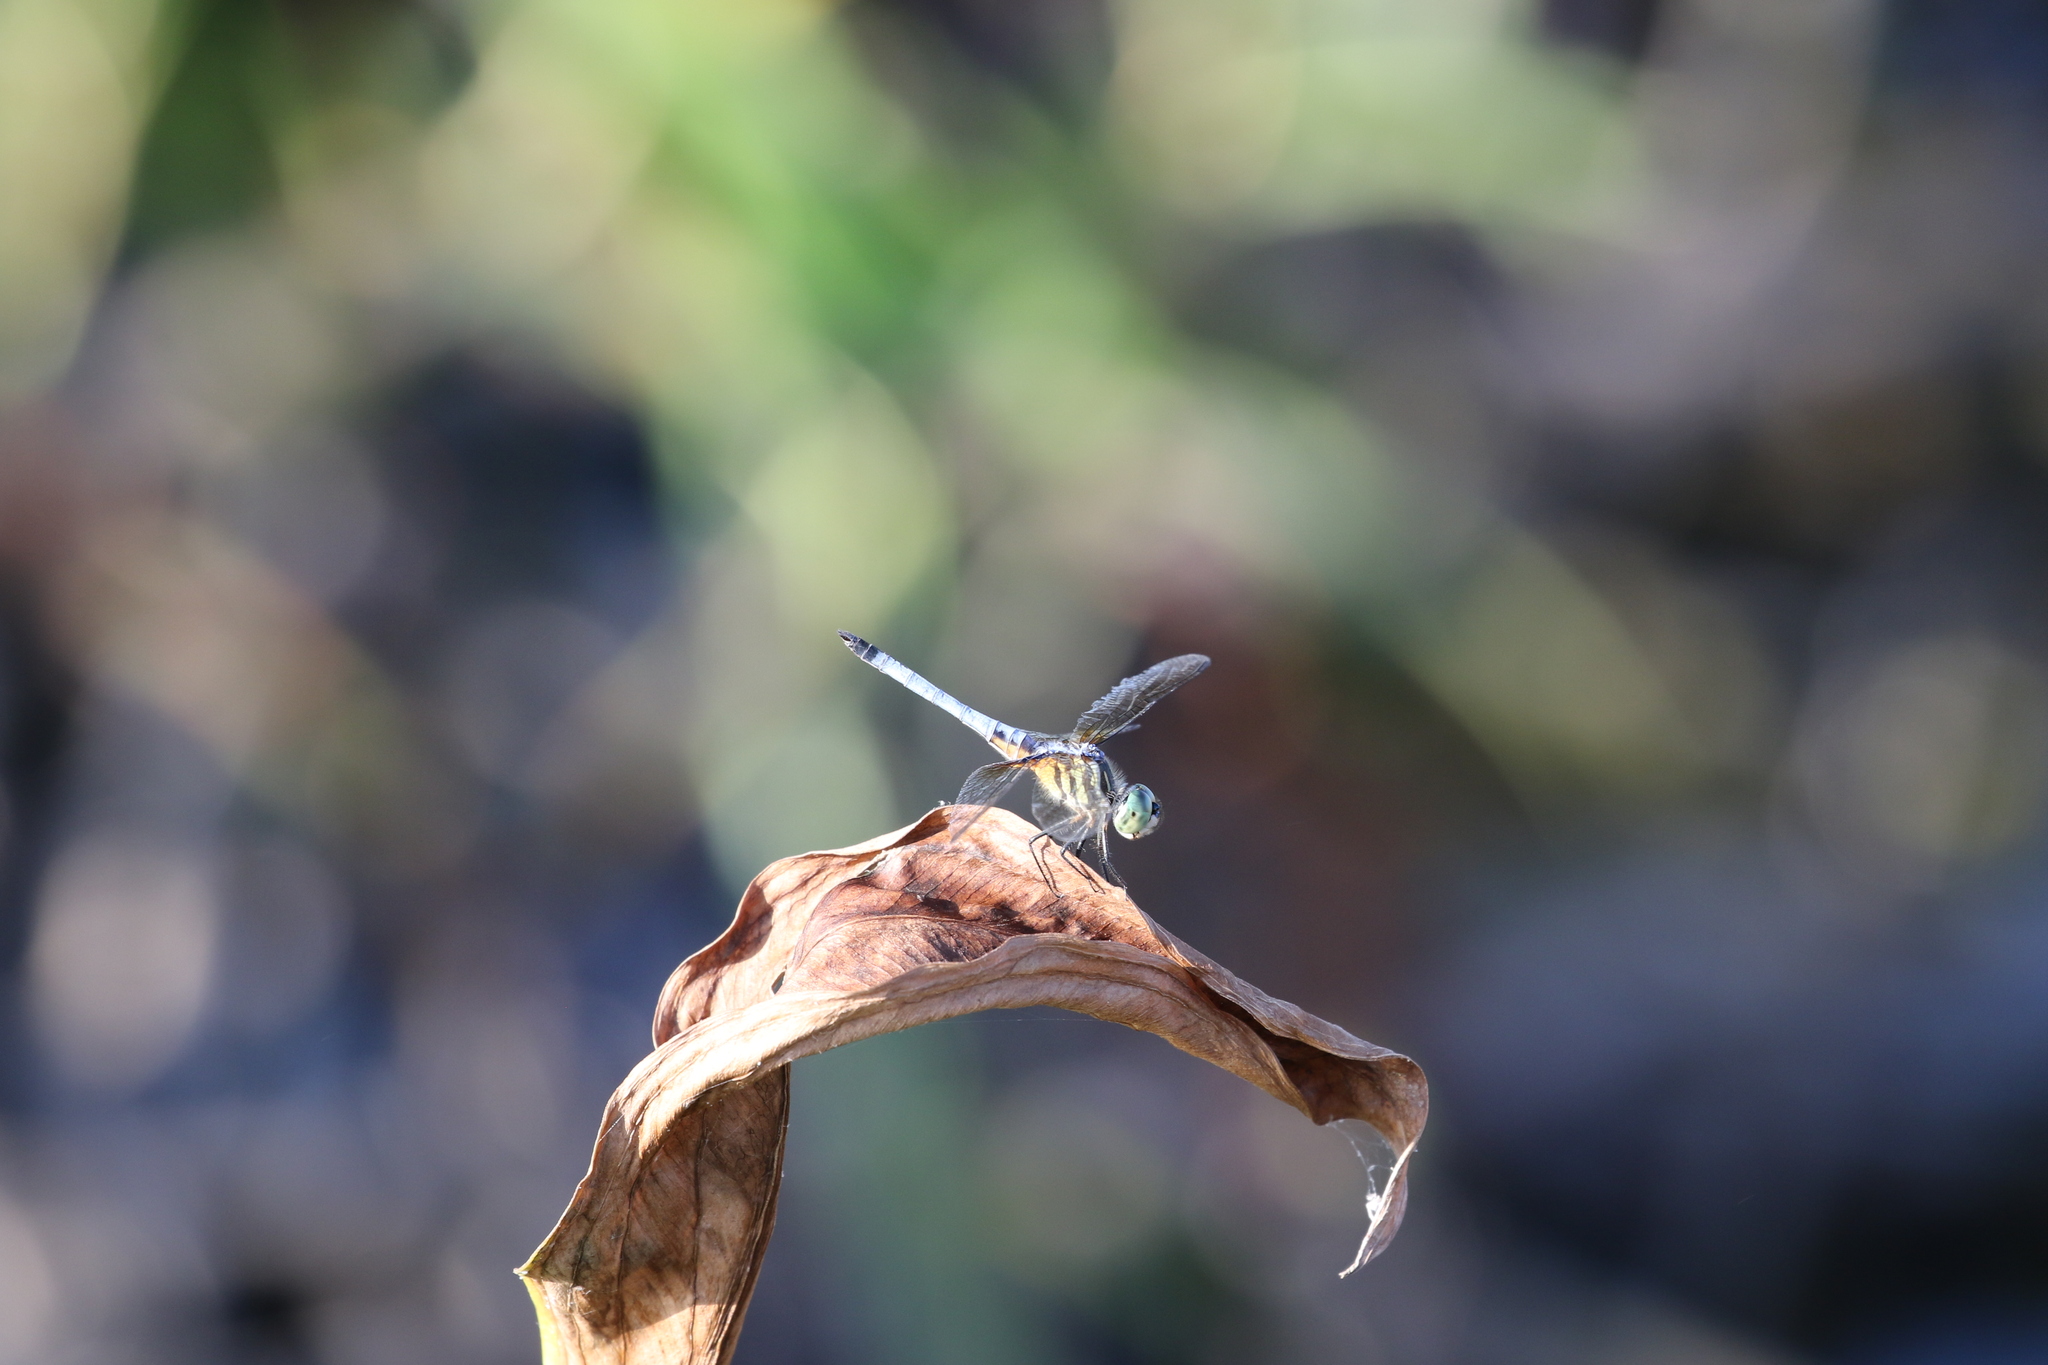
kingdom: Animalia
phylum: Arthropoda
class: Insecta
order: Odonata
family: Libellulidae
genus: Pachydiplax
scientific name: Pachydiplax longipennis
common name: Blue dasher
